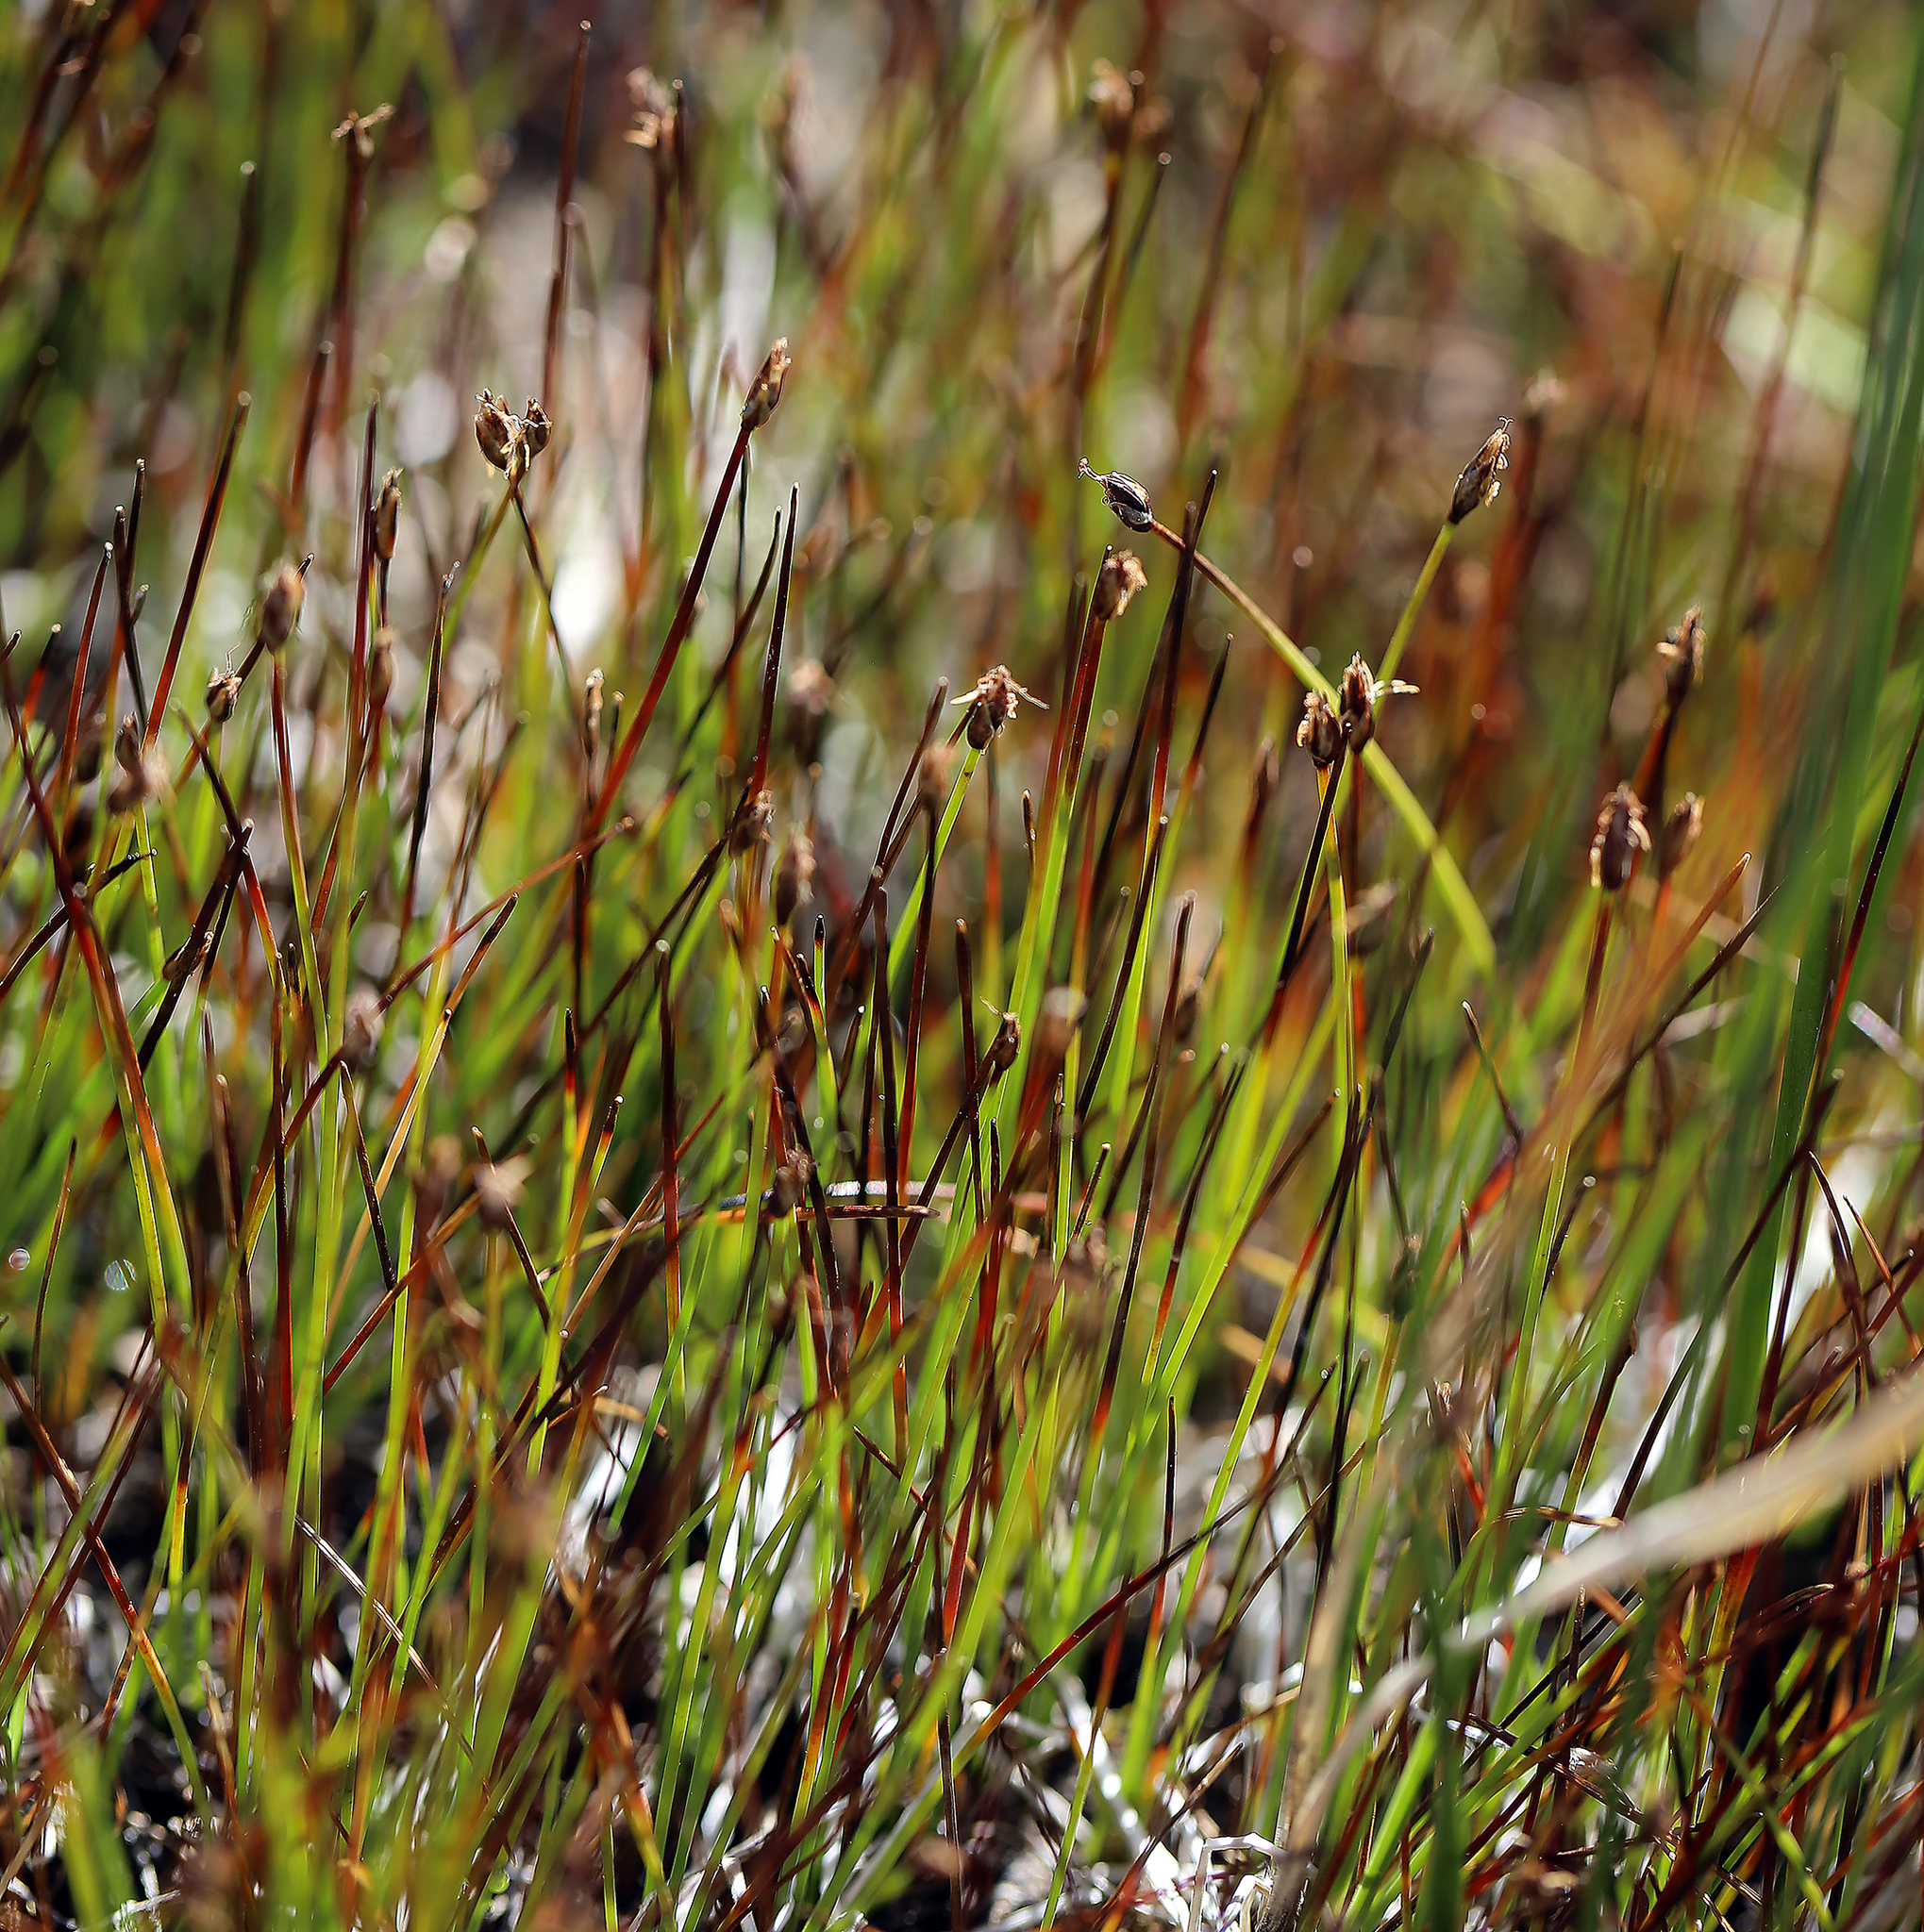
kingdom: Plantae
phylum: Tracheophyta
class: Liliopsida
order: Poales
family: Cyperaceae
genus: Trichophorum
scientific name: Trichophorum pumilum
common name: Rolland's bulrush
